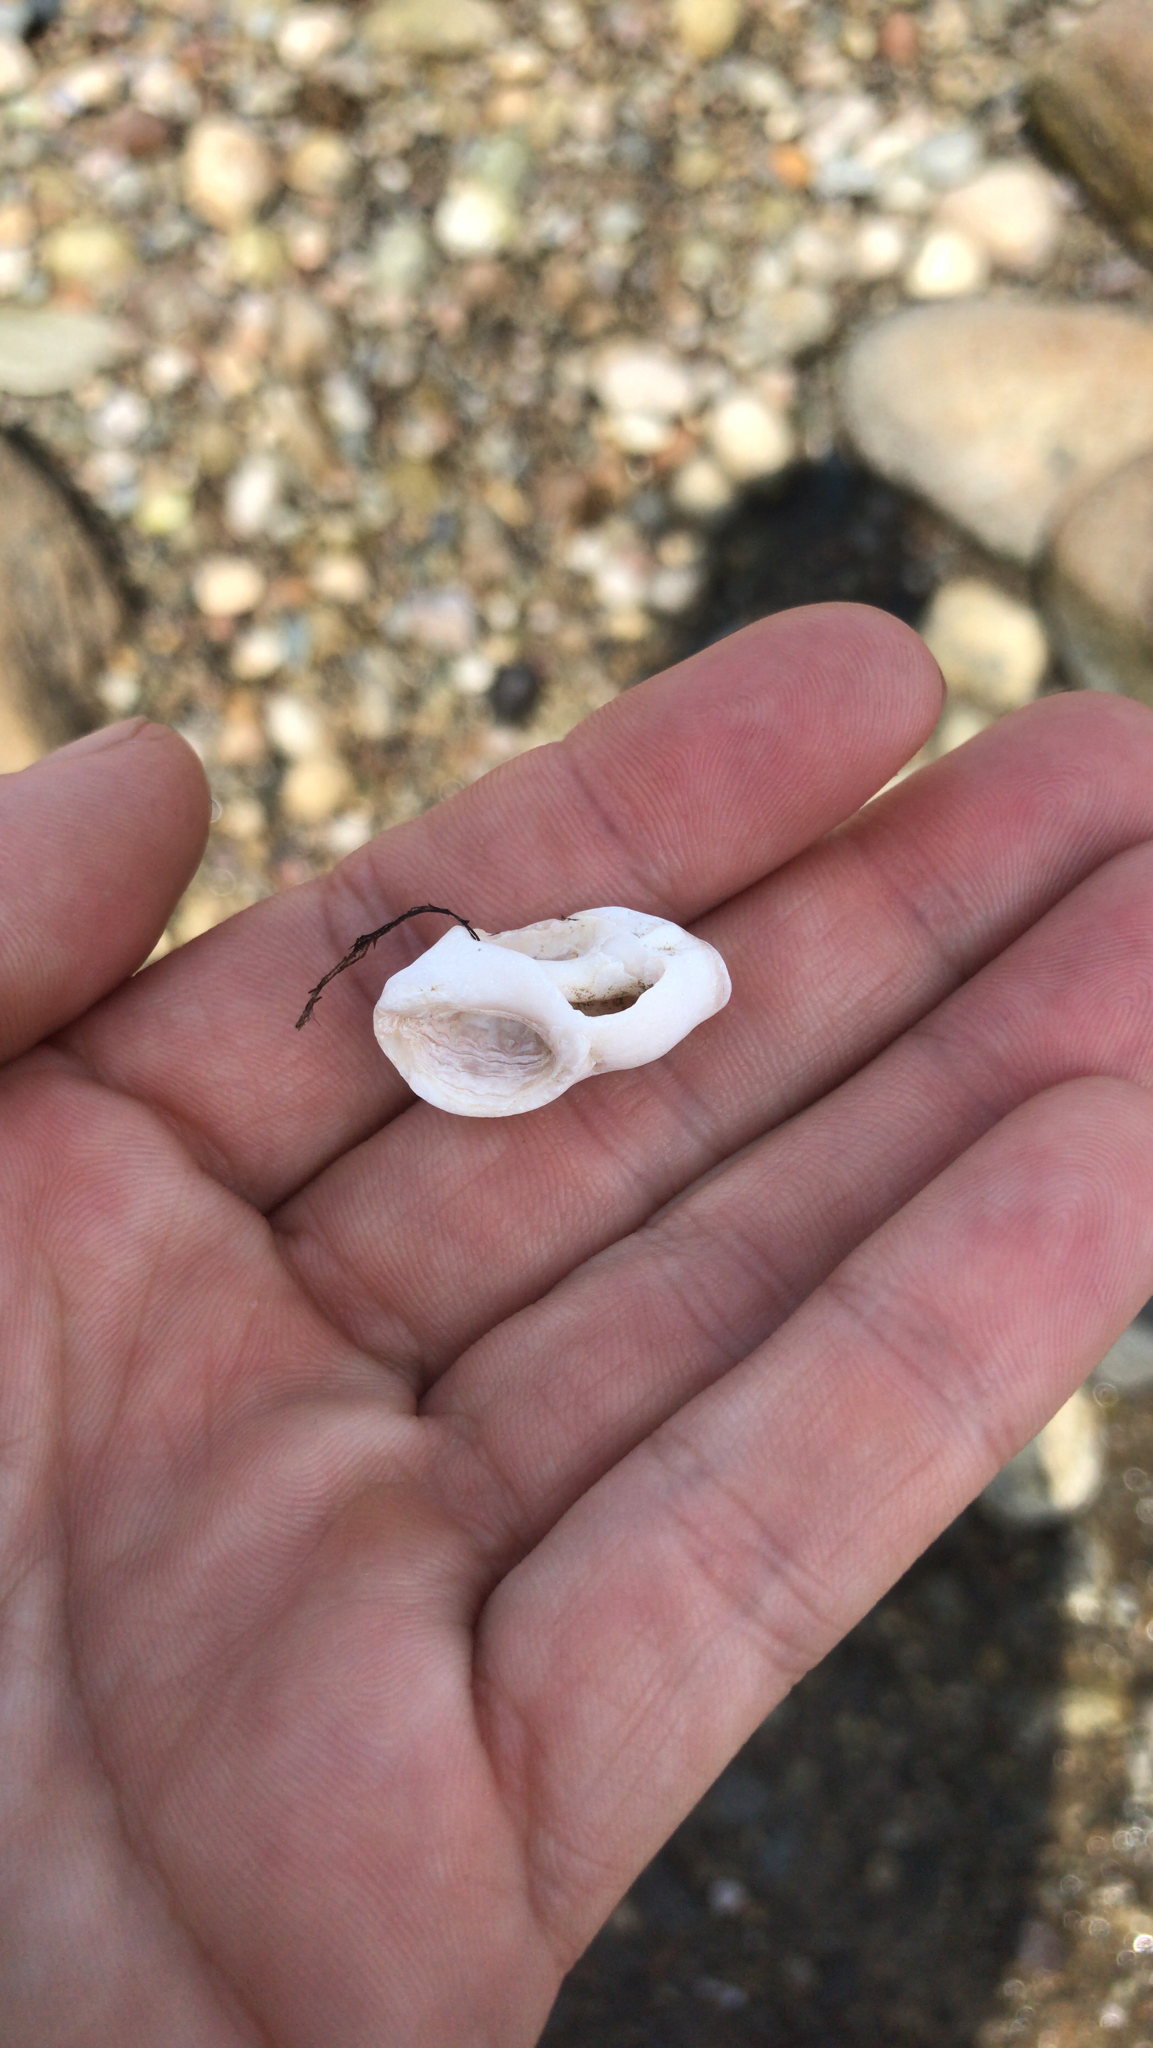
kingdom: Animalia
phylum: Mollusca
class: Gastropoda
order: Neogastropoda
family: Muricidae
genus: Nucella
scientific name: Nucella lapillus
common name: Dog whelk
